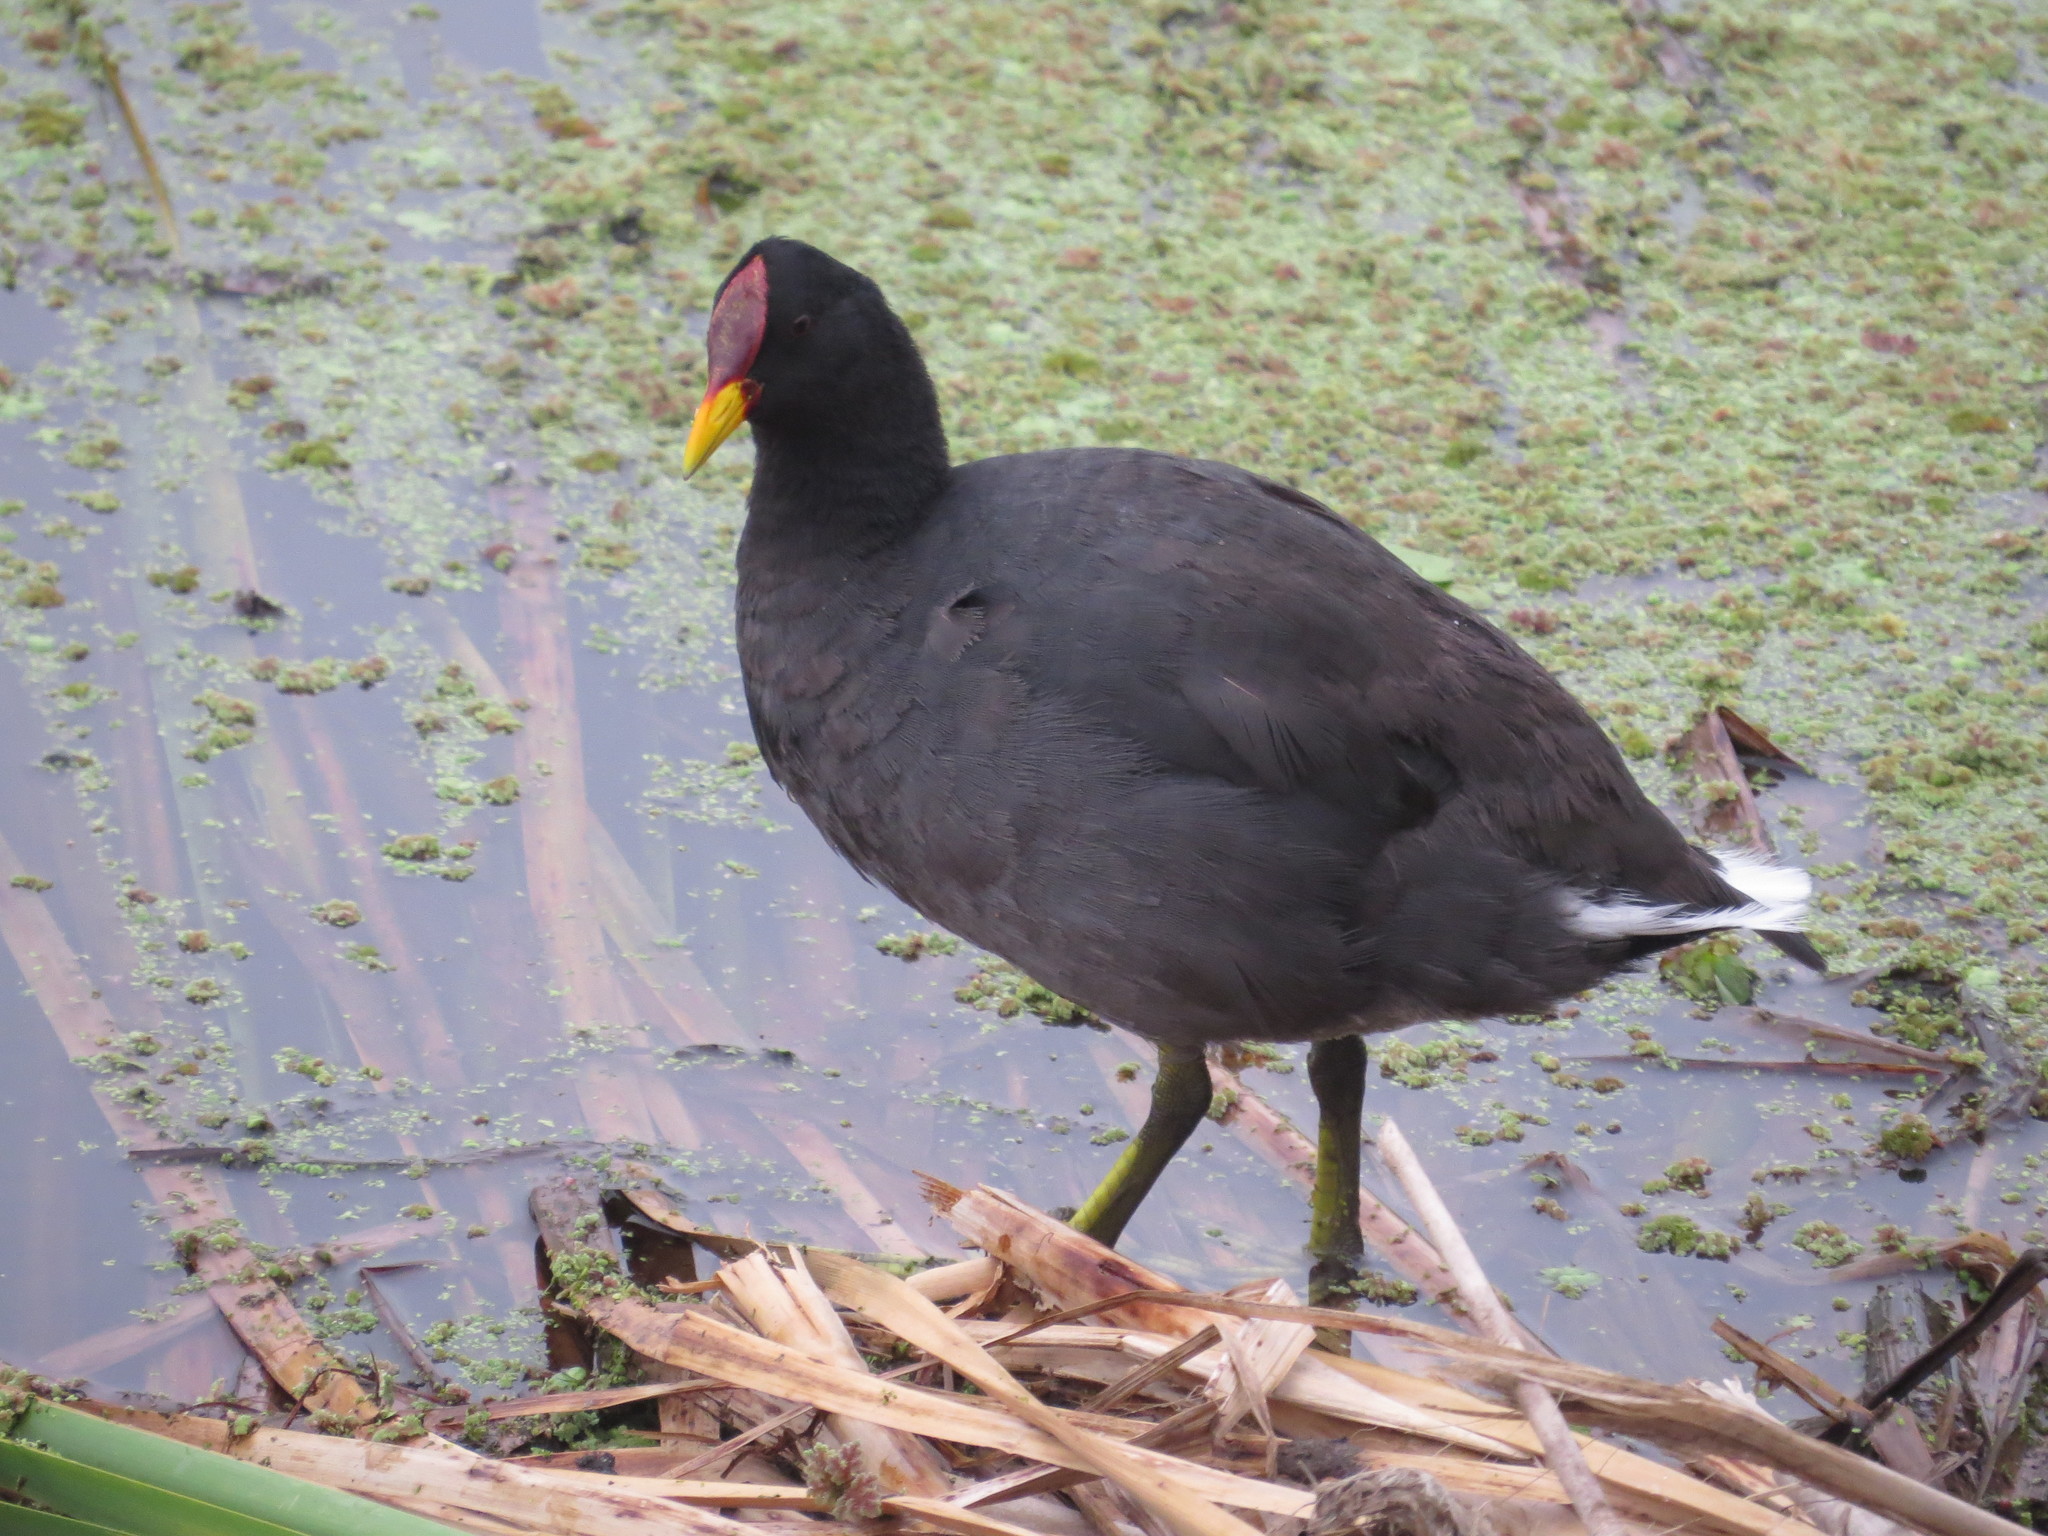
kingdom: Animalia
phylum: Chordata
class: Aves
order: Gruiformes
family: Rallidae
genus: Fulica
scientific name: Fulica rufifrons
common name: Red-fronted coot
